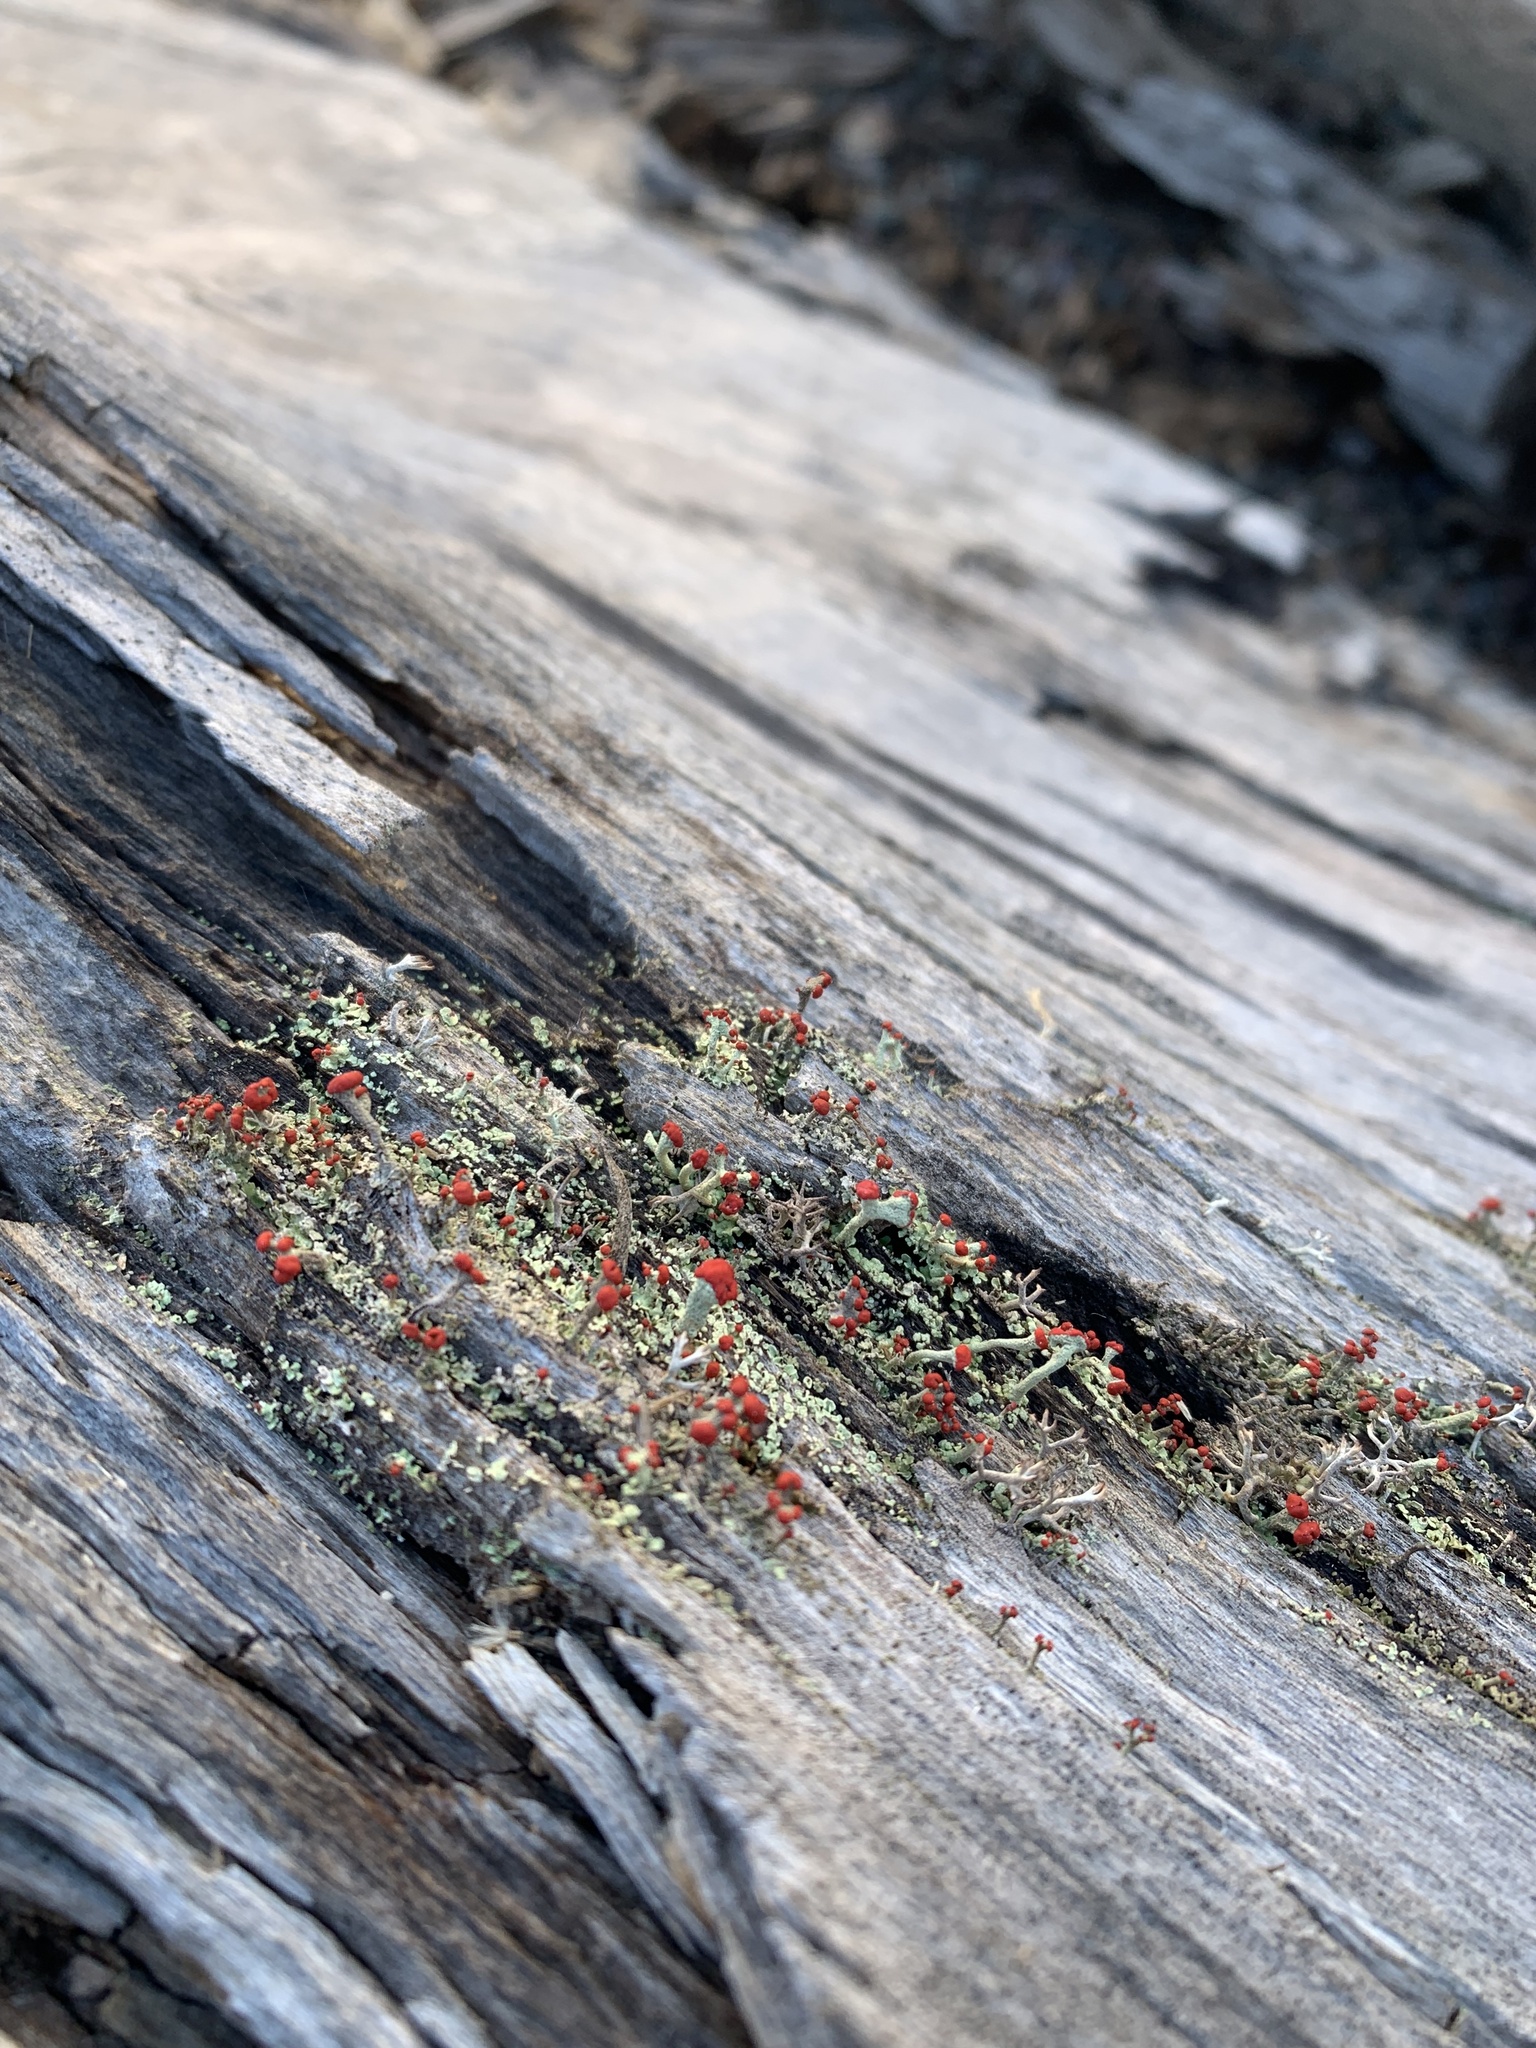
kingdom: Fungi
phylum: Ascomycota
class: Lecanoromycetes
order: Lecanorales
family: Cladoniaceae
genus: Cladonia
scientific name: Cladonia cristatella
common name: British soldier lichen
